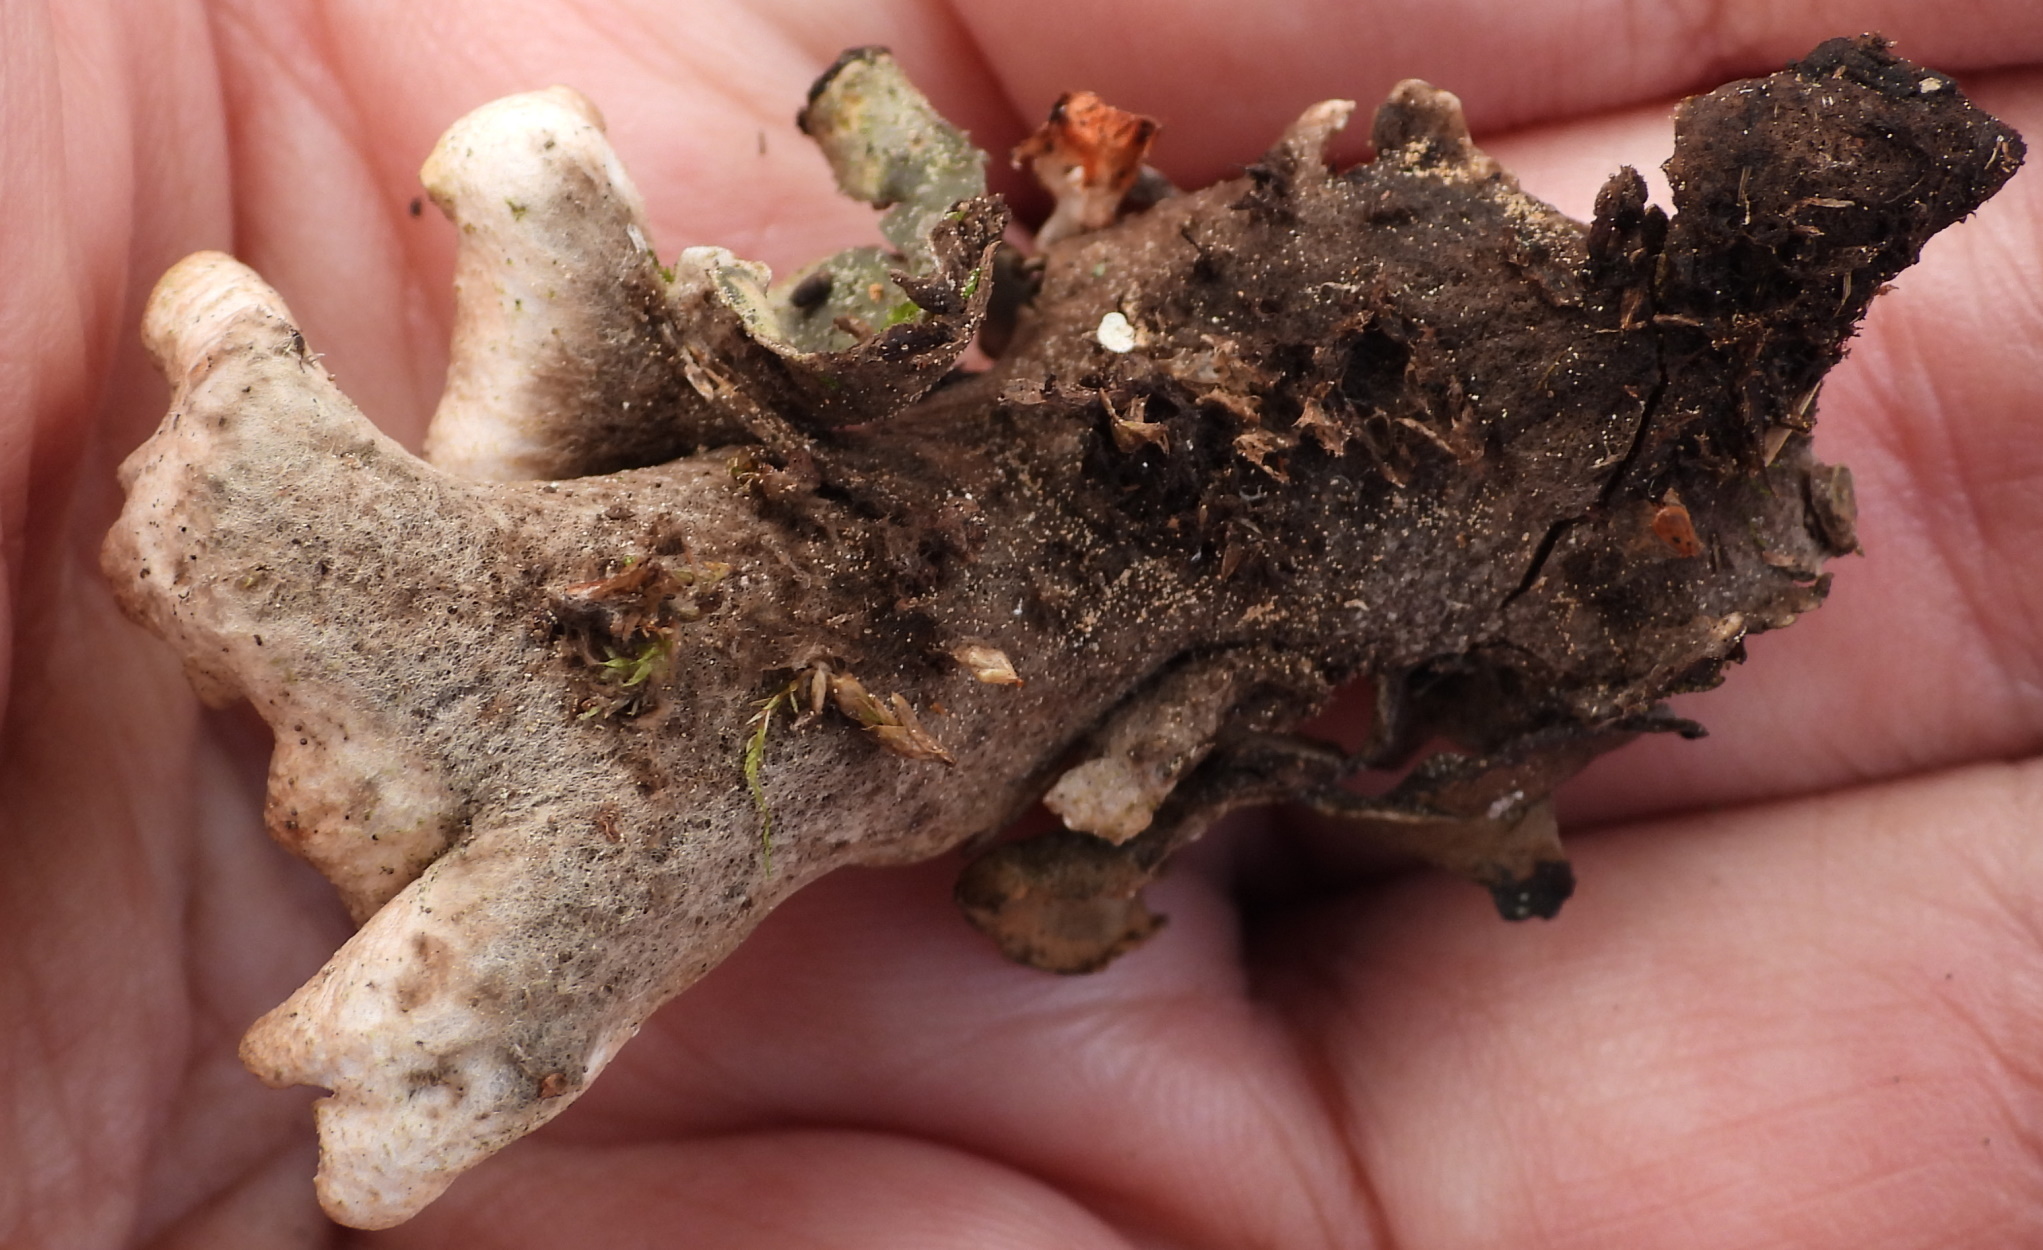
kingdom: Fungi
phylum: Ascomycota
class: Lecanoromycetes
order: Peltigerales
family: Peltigeraceae
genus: Peltigera
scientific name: Peltigera malacea
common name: Matt felt lichen
